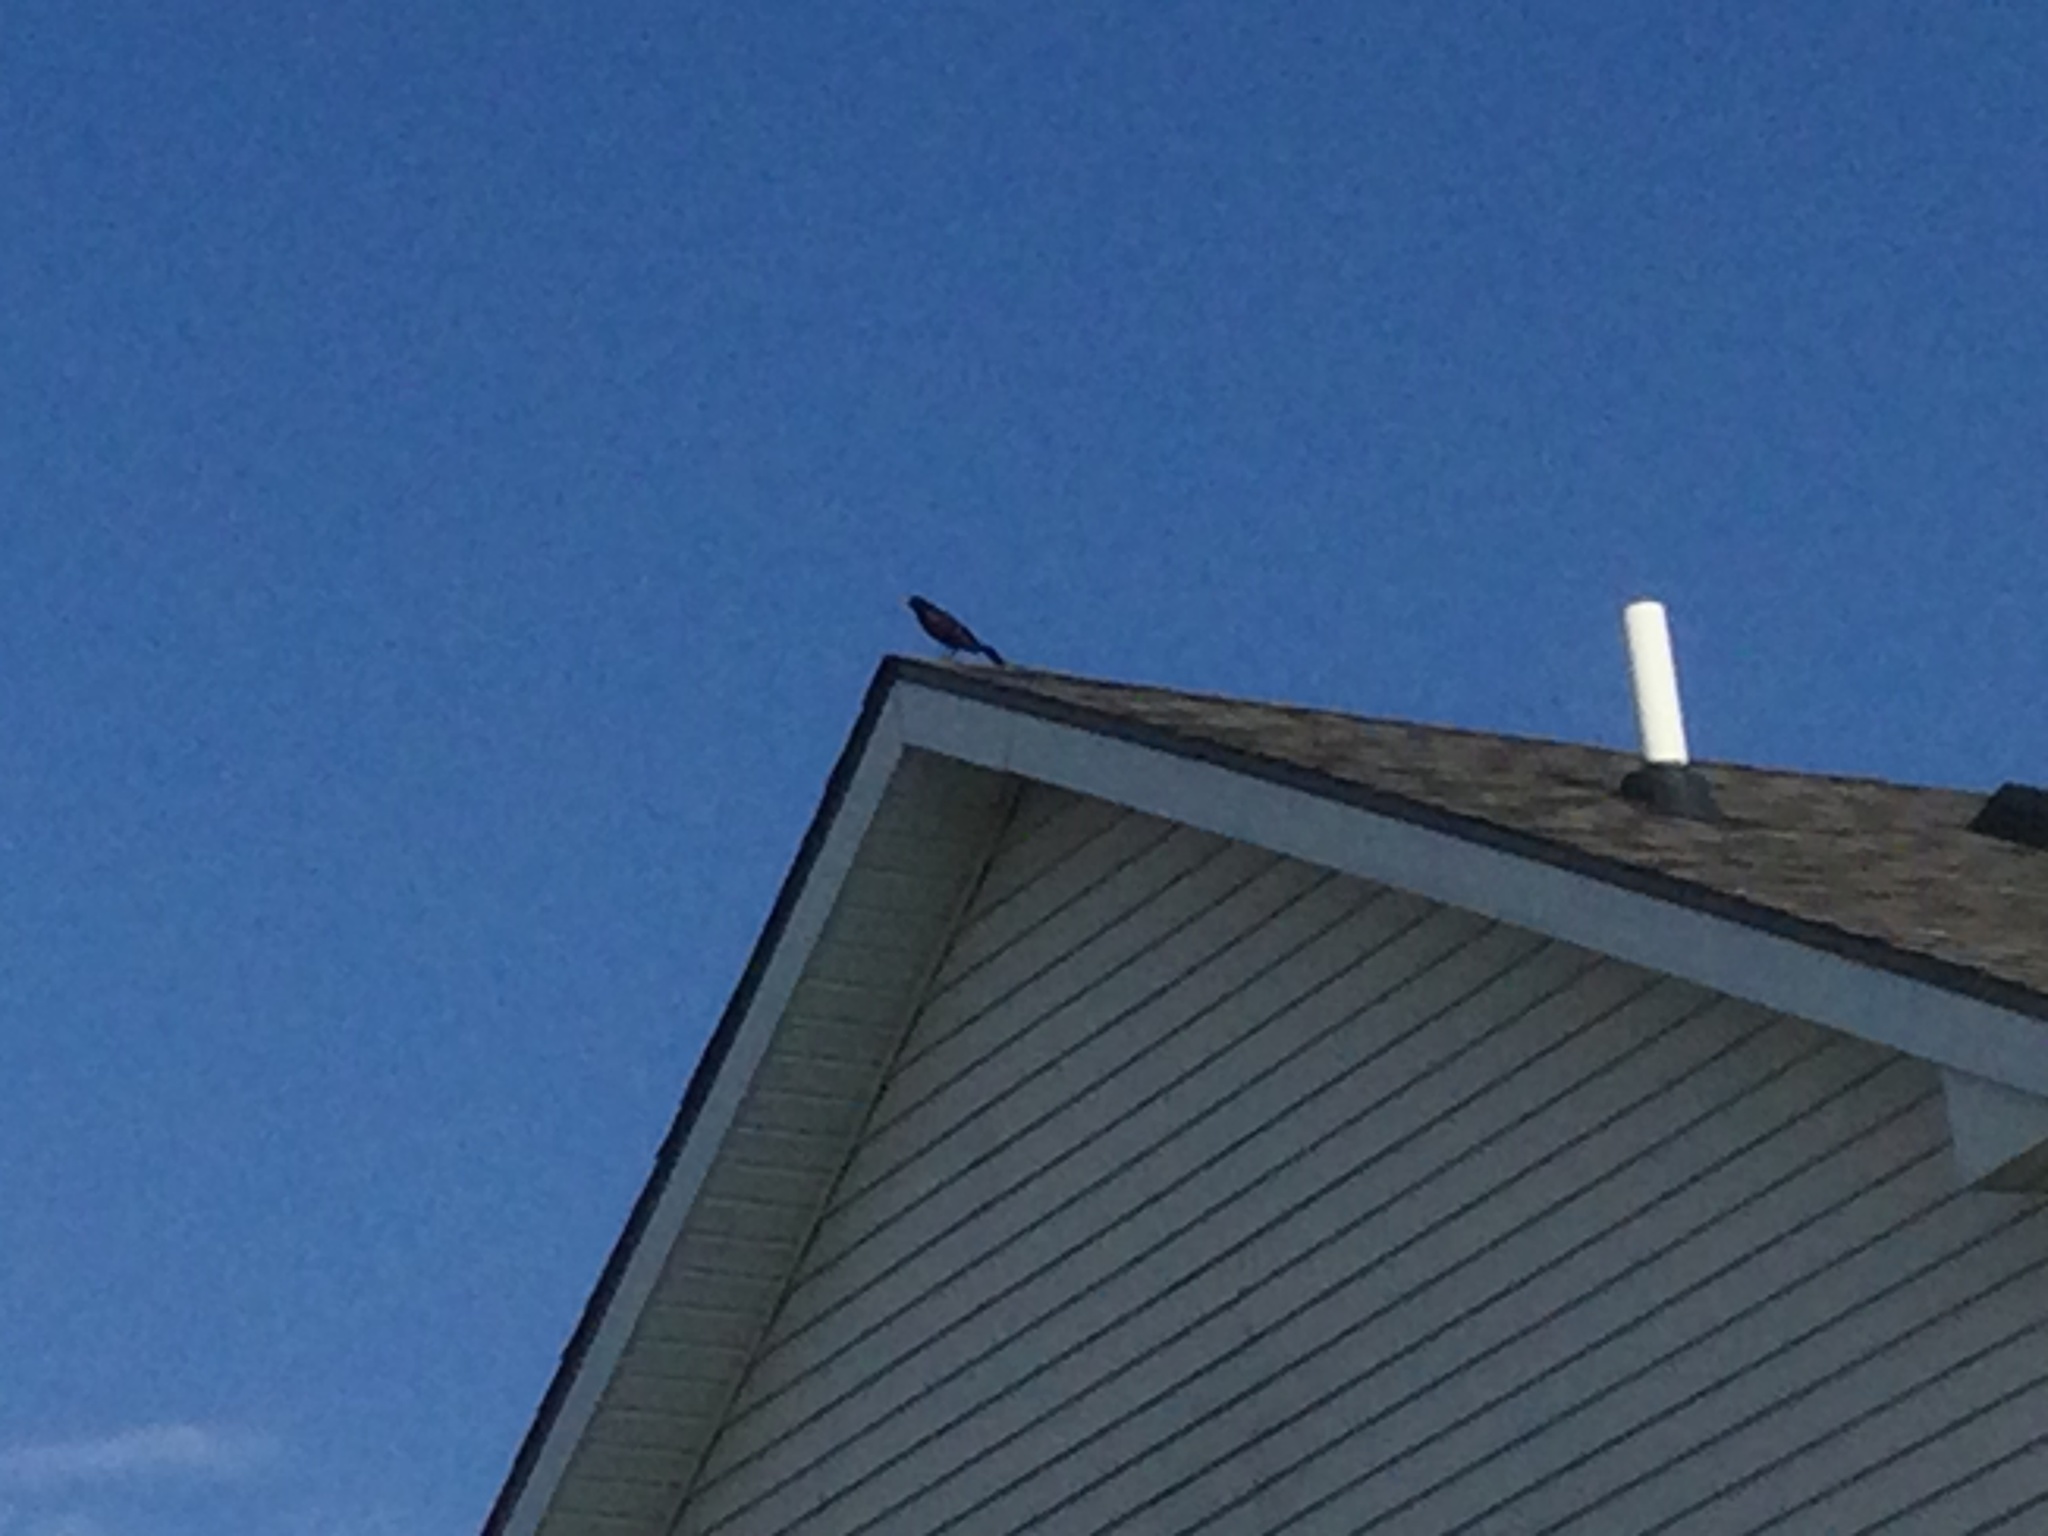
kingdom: Animalia
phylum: Chordata
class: Aves
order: Passeriformes
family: Corvidae
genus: Corvus
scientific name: Corvus brachyrhynchos
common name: American crow
